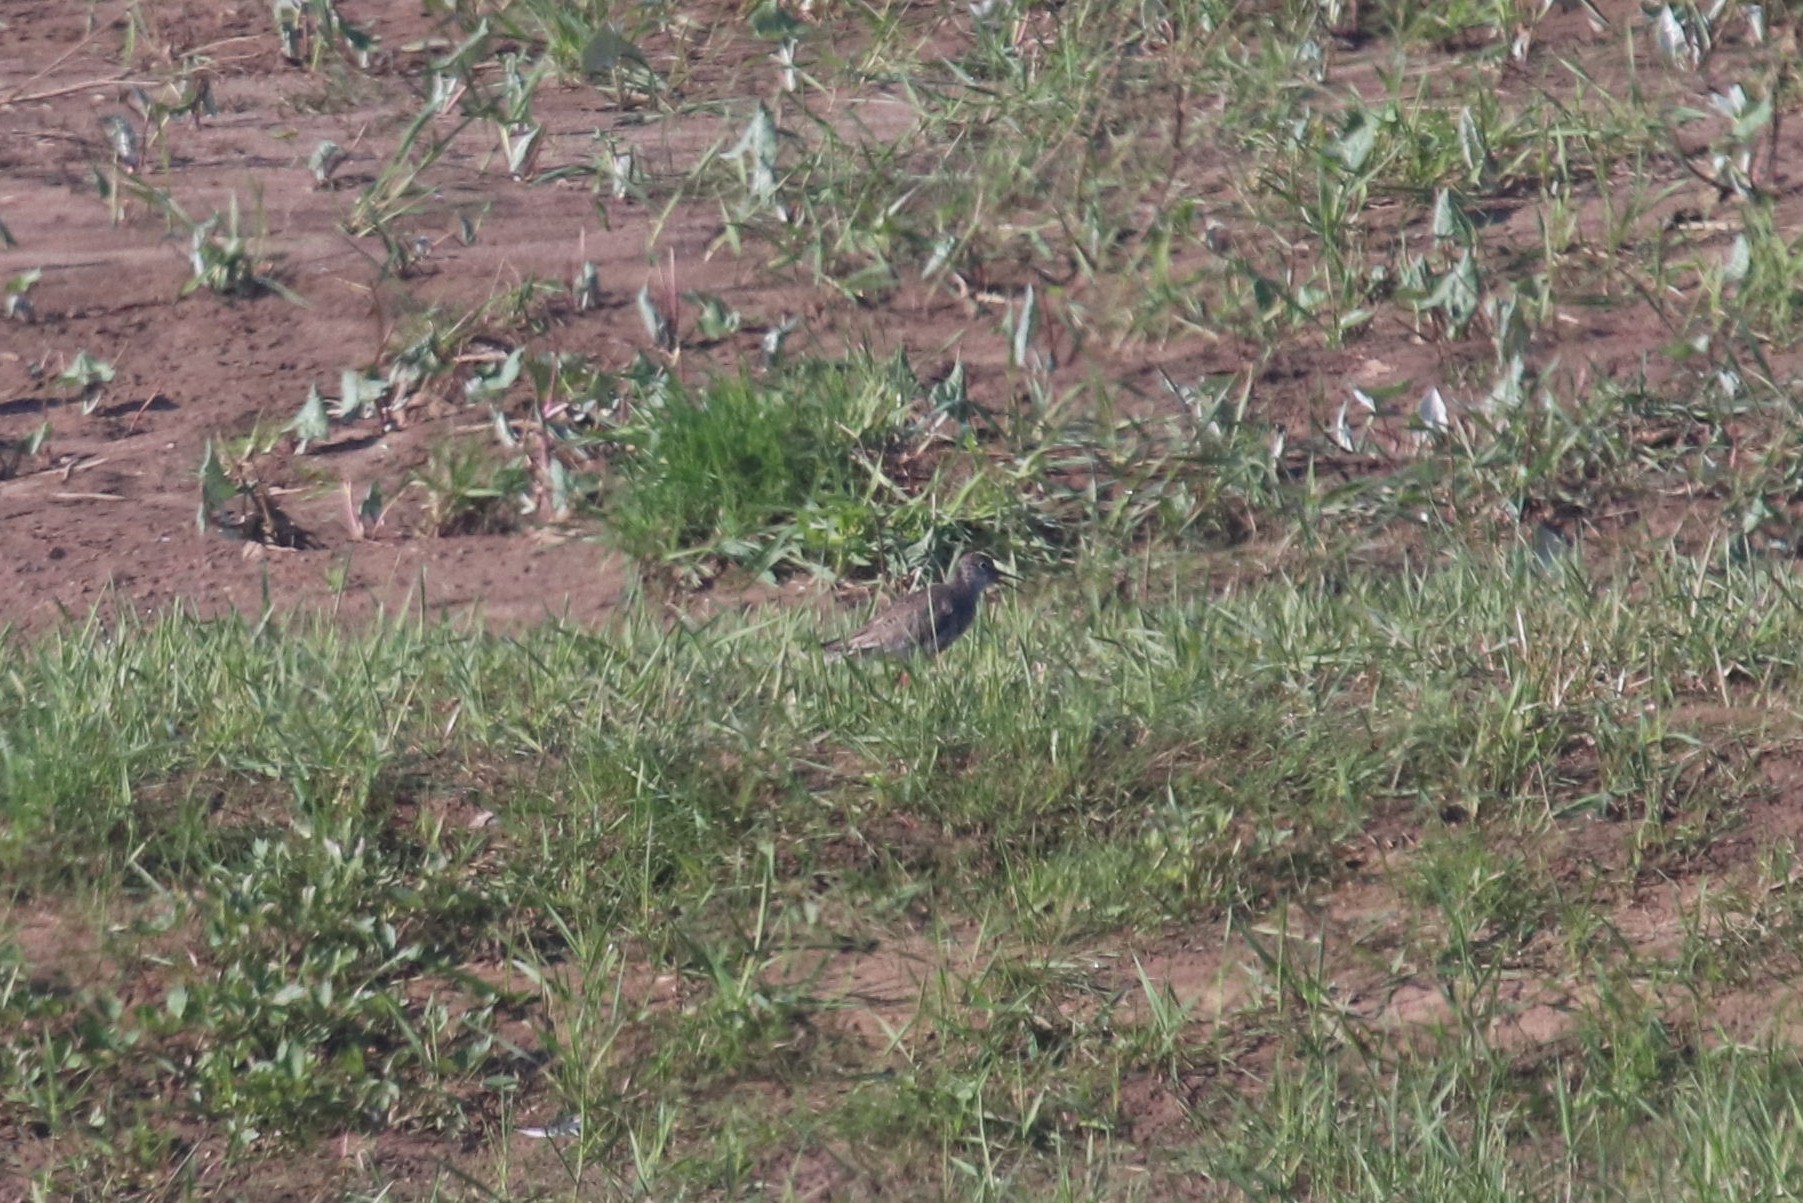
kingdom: Animalia
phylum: Chordata
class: Aves
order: Charadriiformes
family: Scolopacidae
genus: Tringa
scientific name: Tringa totanus
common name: Common redshank
